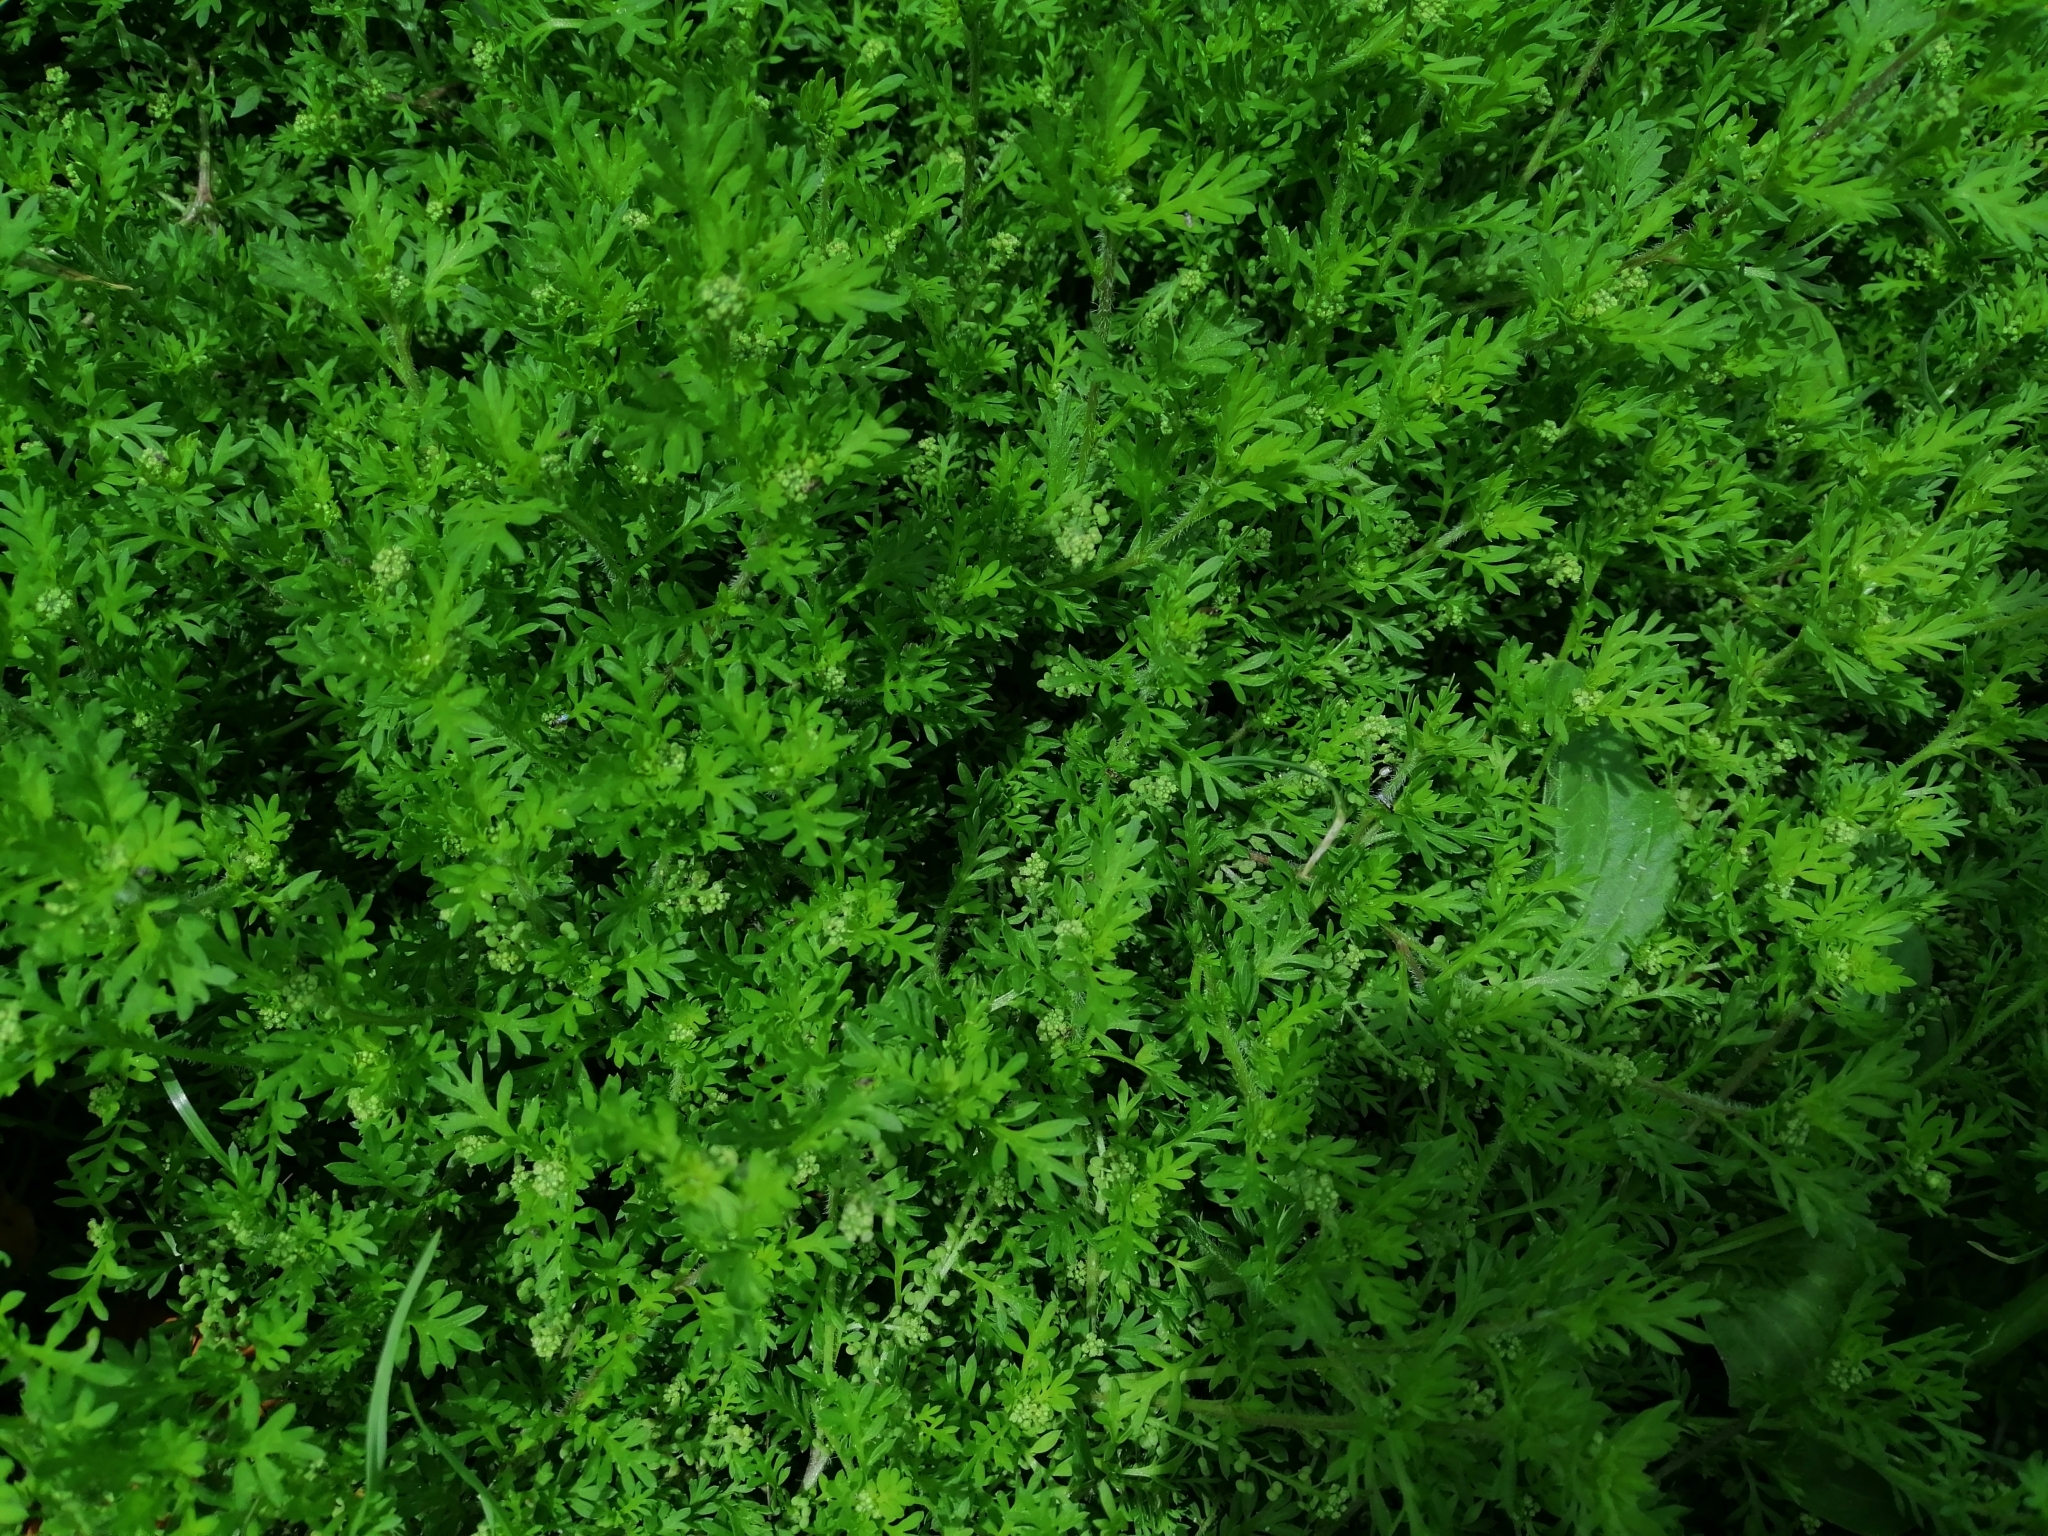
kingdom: Plantae
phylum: Tracheophyta
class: Magnoliopsida
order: Asterales
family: Asteraceae
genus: Cotula
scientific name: Cotula australis
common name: Australian waterbuttons
